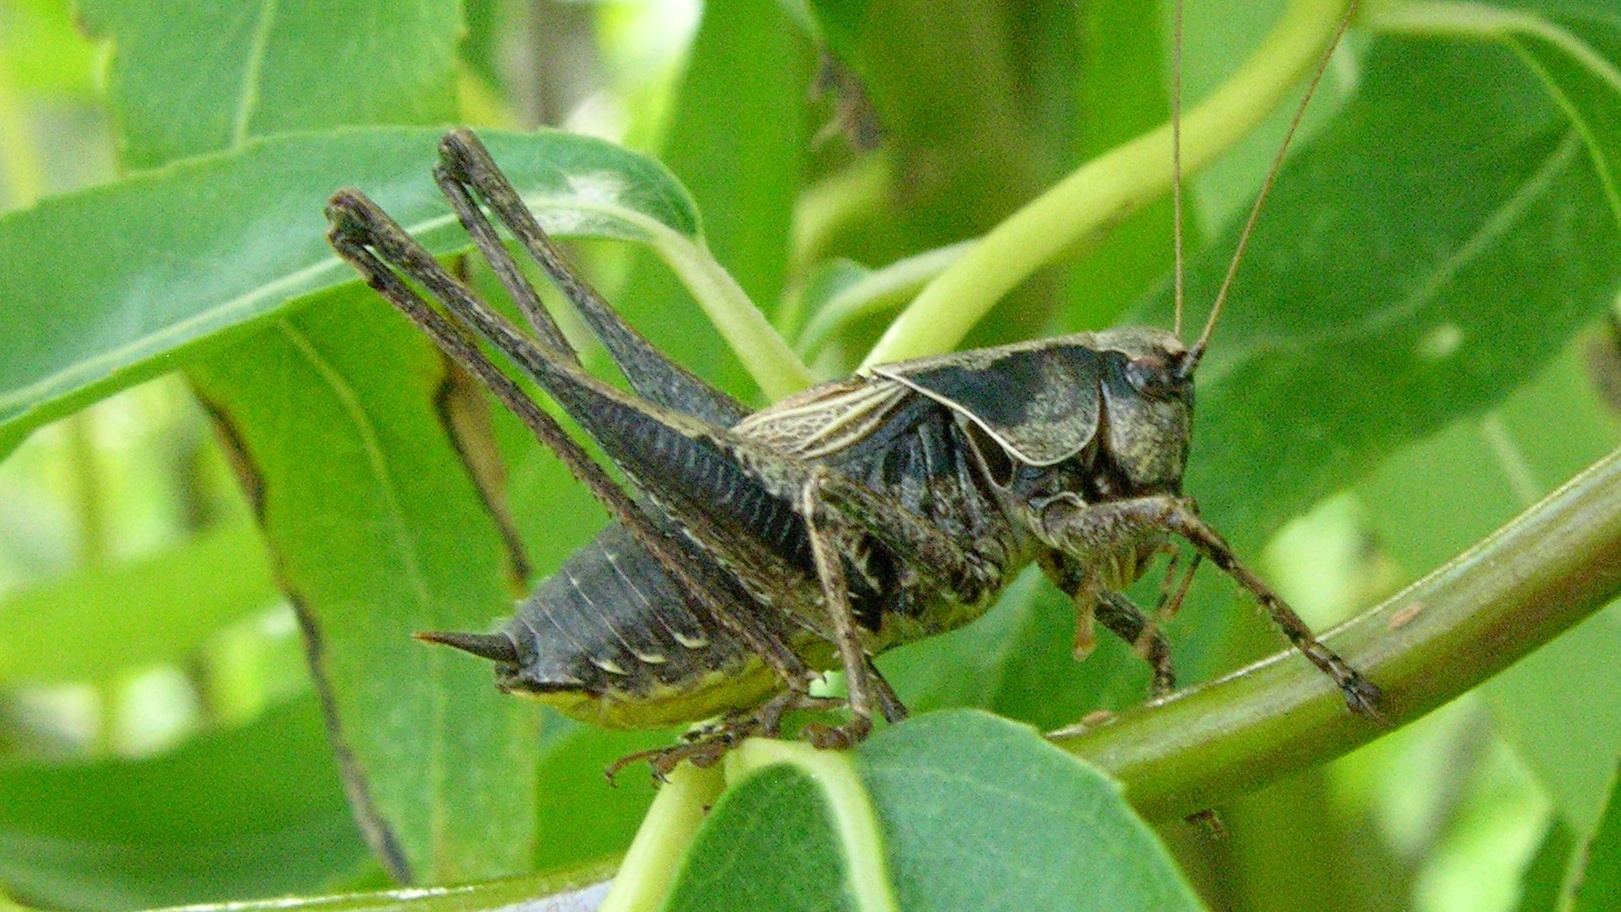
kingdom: Animalia
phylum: Arthropoda
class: Insecta
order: Orthoptera
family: Tettigoniidae
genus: Pholidoptera
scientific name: Pholidoptera griseoaptera
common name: Dark bush-cricket
